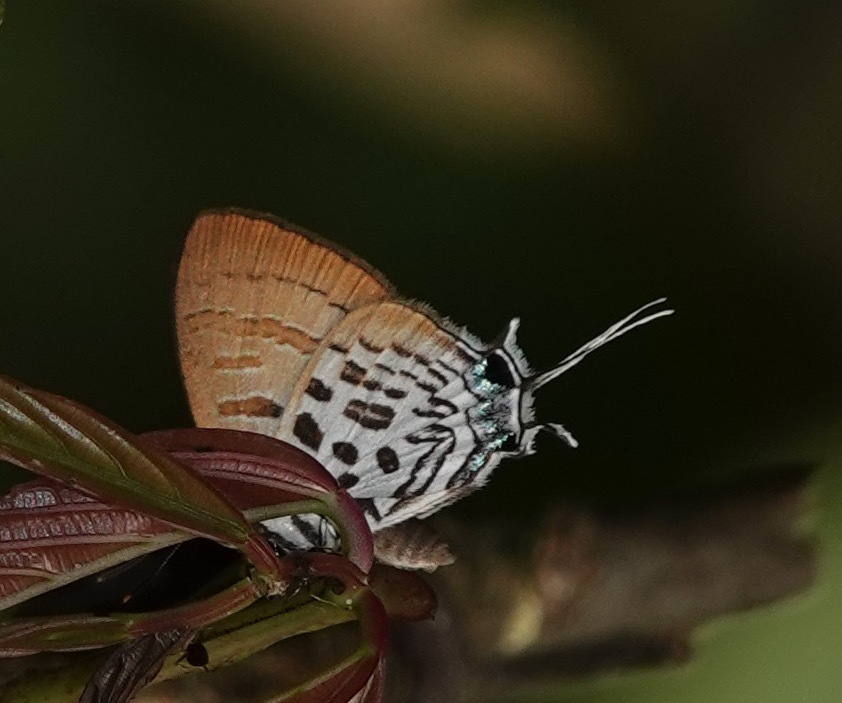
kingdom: Animalia
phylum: Arthropoda
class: Insecta
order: Lepidoptera
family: Lycaenidae
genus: Drupadia
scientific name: Drupadia theda
